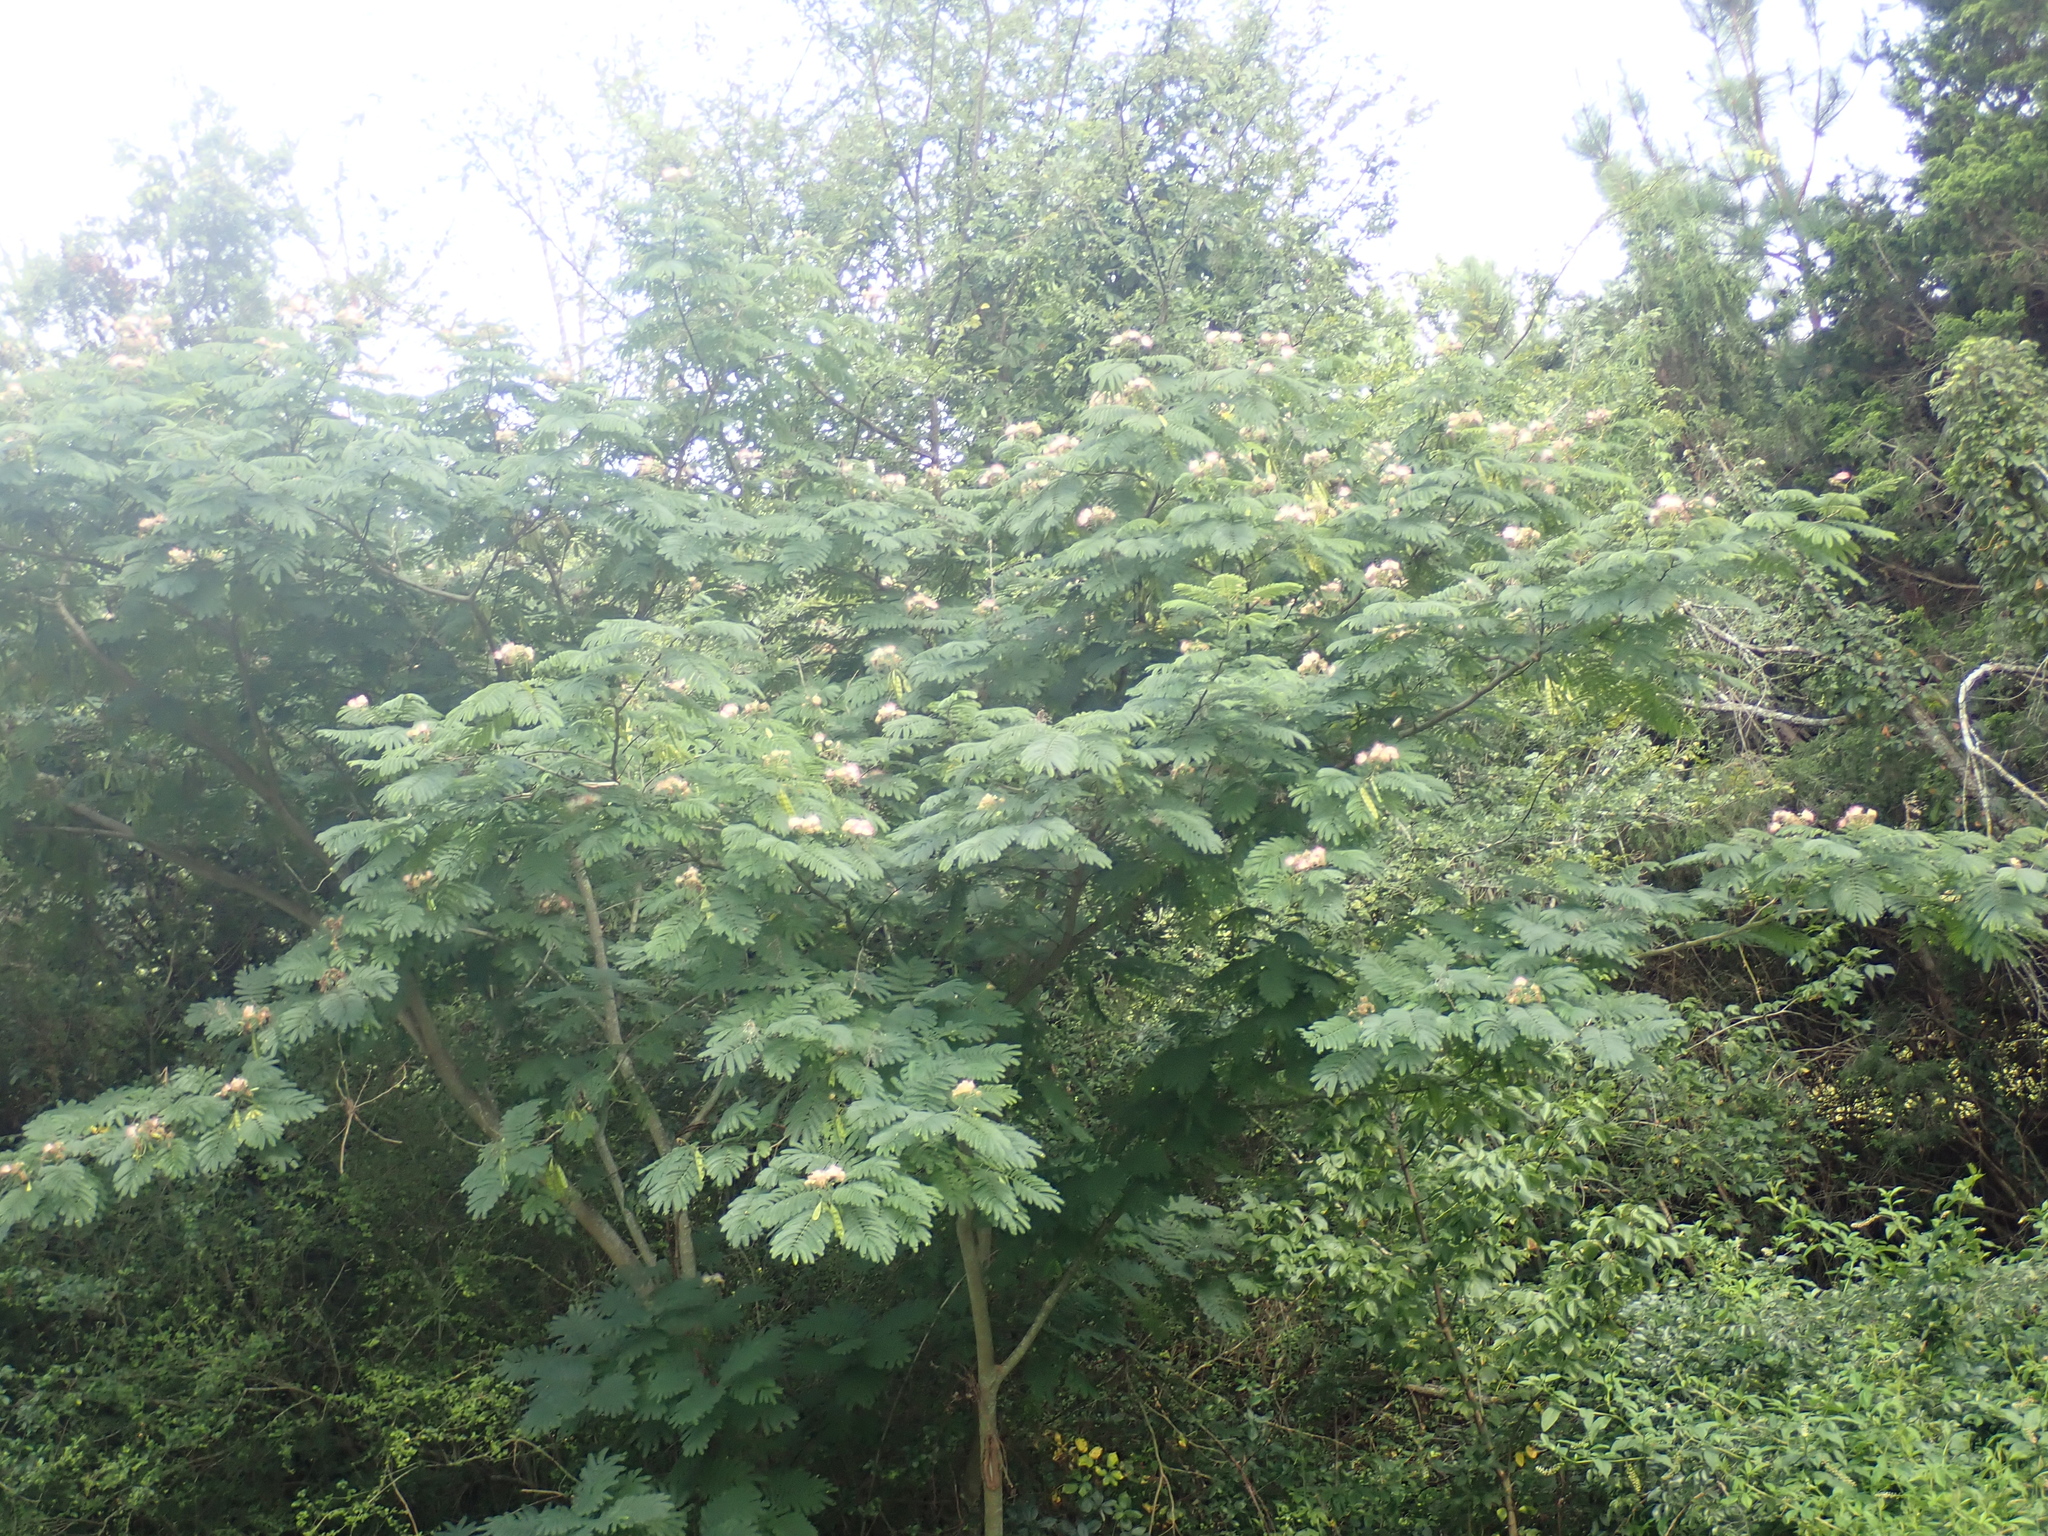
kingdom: Plantae
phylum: Tracheophyta
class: Magnoliopsida
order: Fabales
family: Fabaceae
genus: Albizia
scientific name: Albizia julibrissin
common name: Silktree
